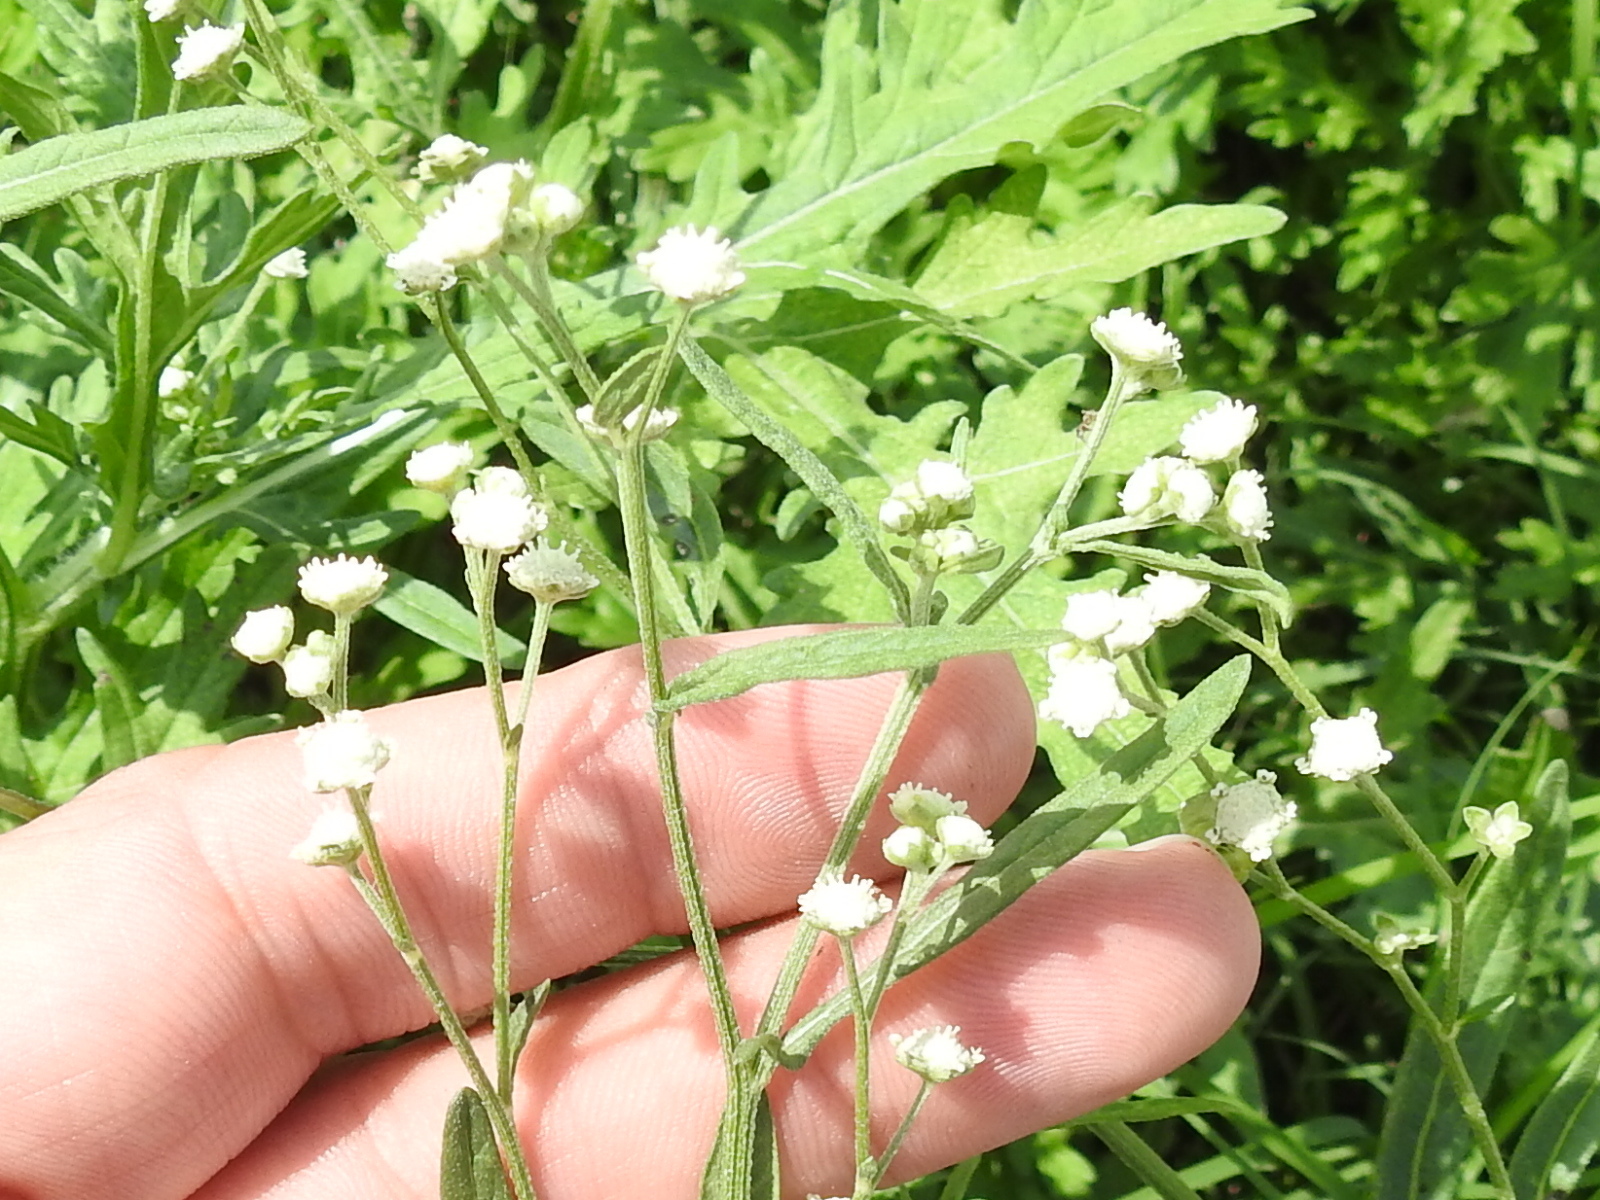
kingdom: Plantae
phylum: Tracheophyta
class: Magnoliopsida
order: Asterales
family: Asteraceae
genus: Parthenium
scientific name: Parthenium hysterophorus
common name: Santa maria feverfew
